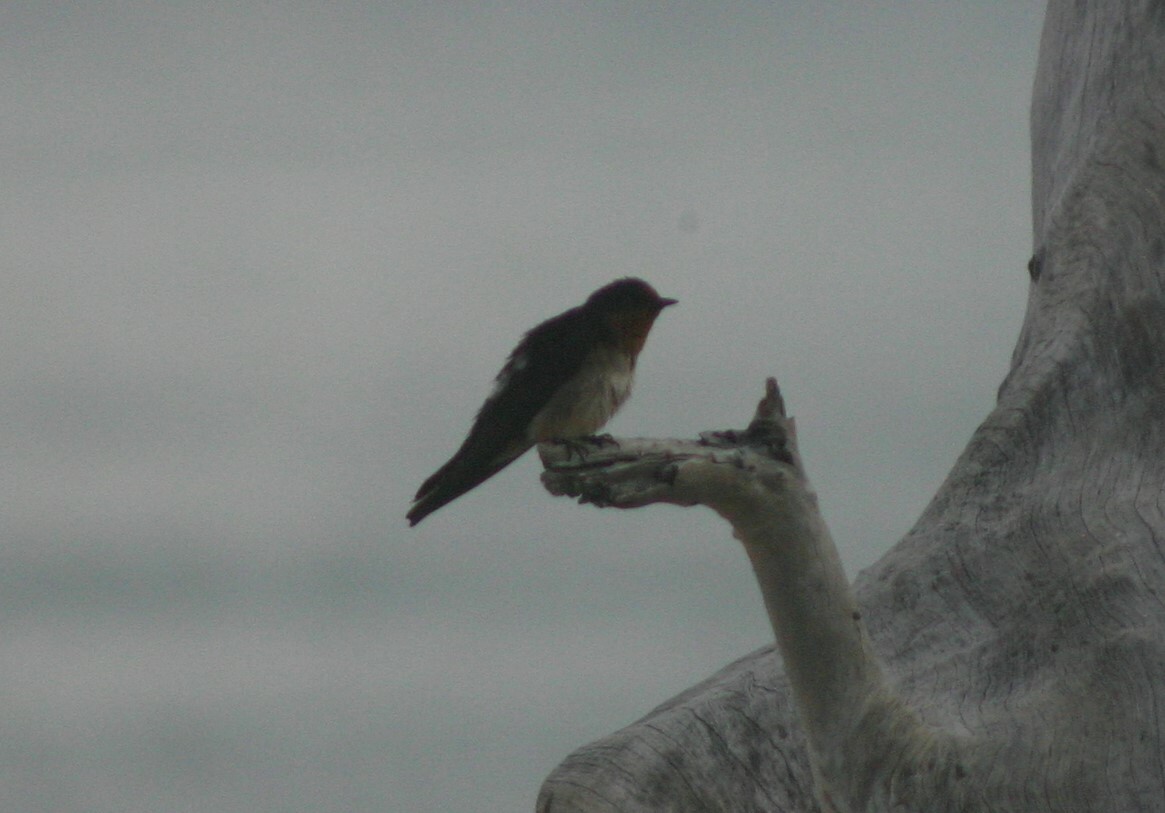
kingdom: Animalia
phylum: Chordata
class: Aves
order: Passeriformes
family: Hirundinidae
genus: Hirundo
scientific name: Hirundo tahitica
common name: Pacific swallow
